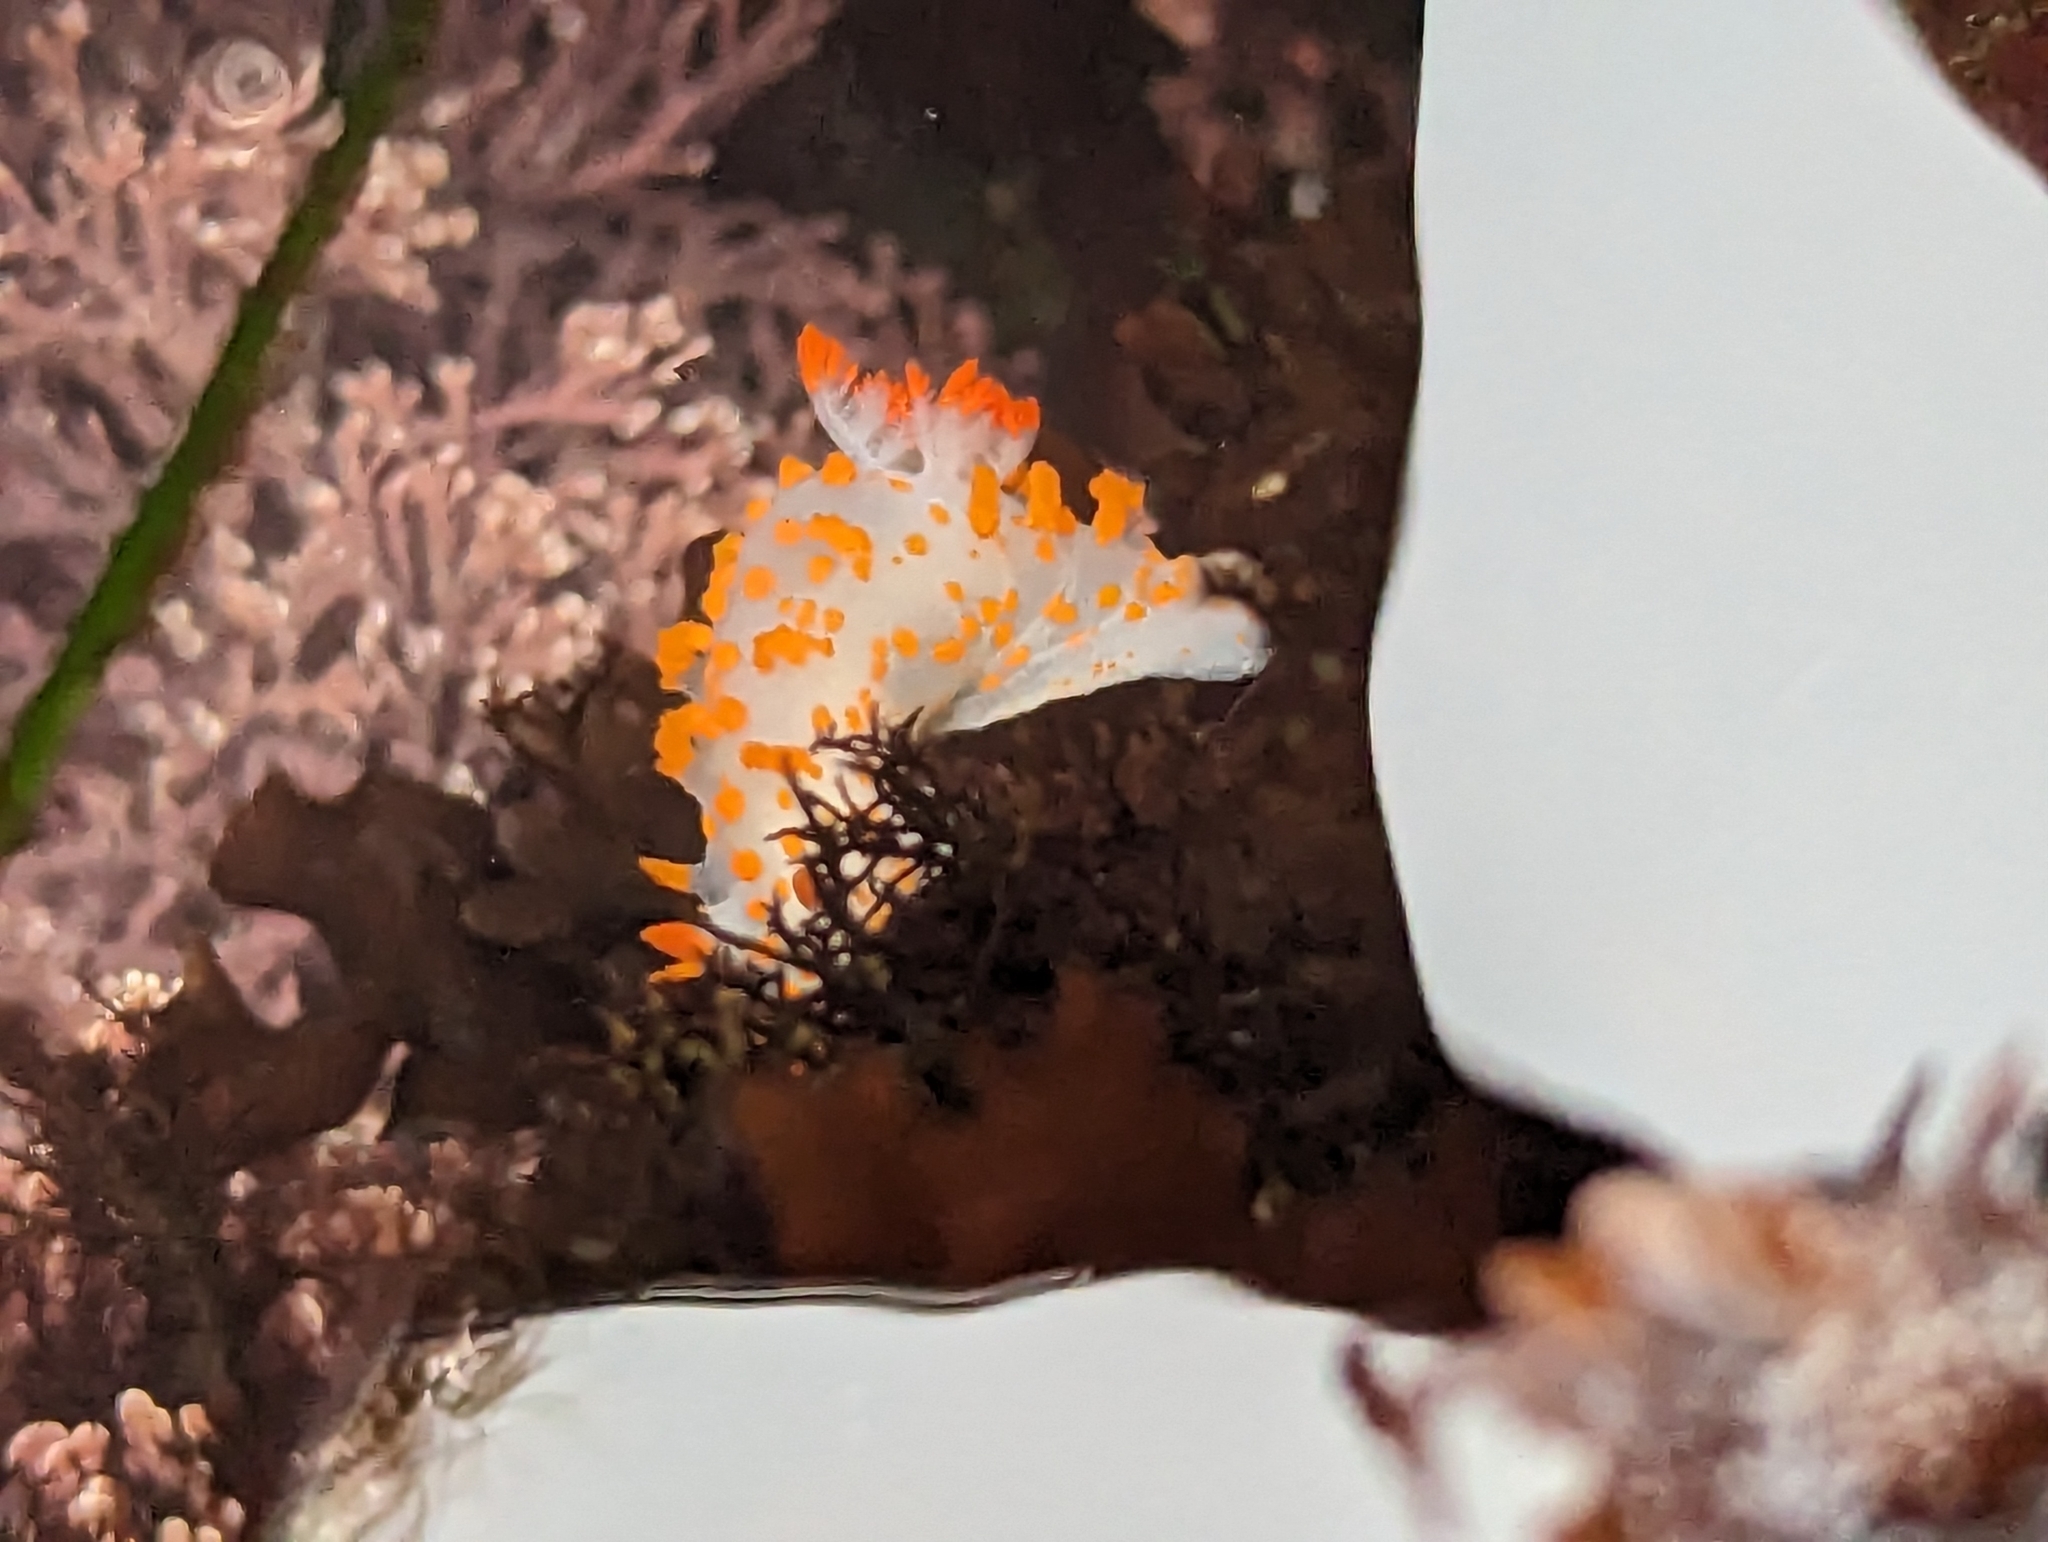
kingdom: Animalia
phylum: Mollusca
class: Gastropoda
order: Nudibranchia
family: Polyceridae
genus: Triopha
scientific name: Triopha catalinae
